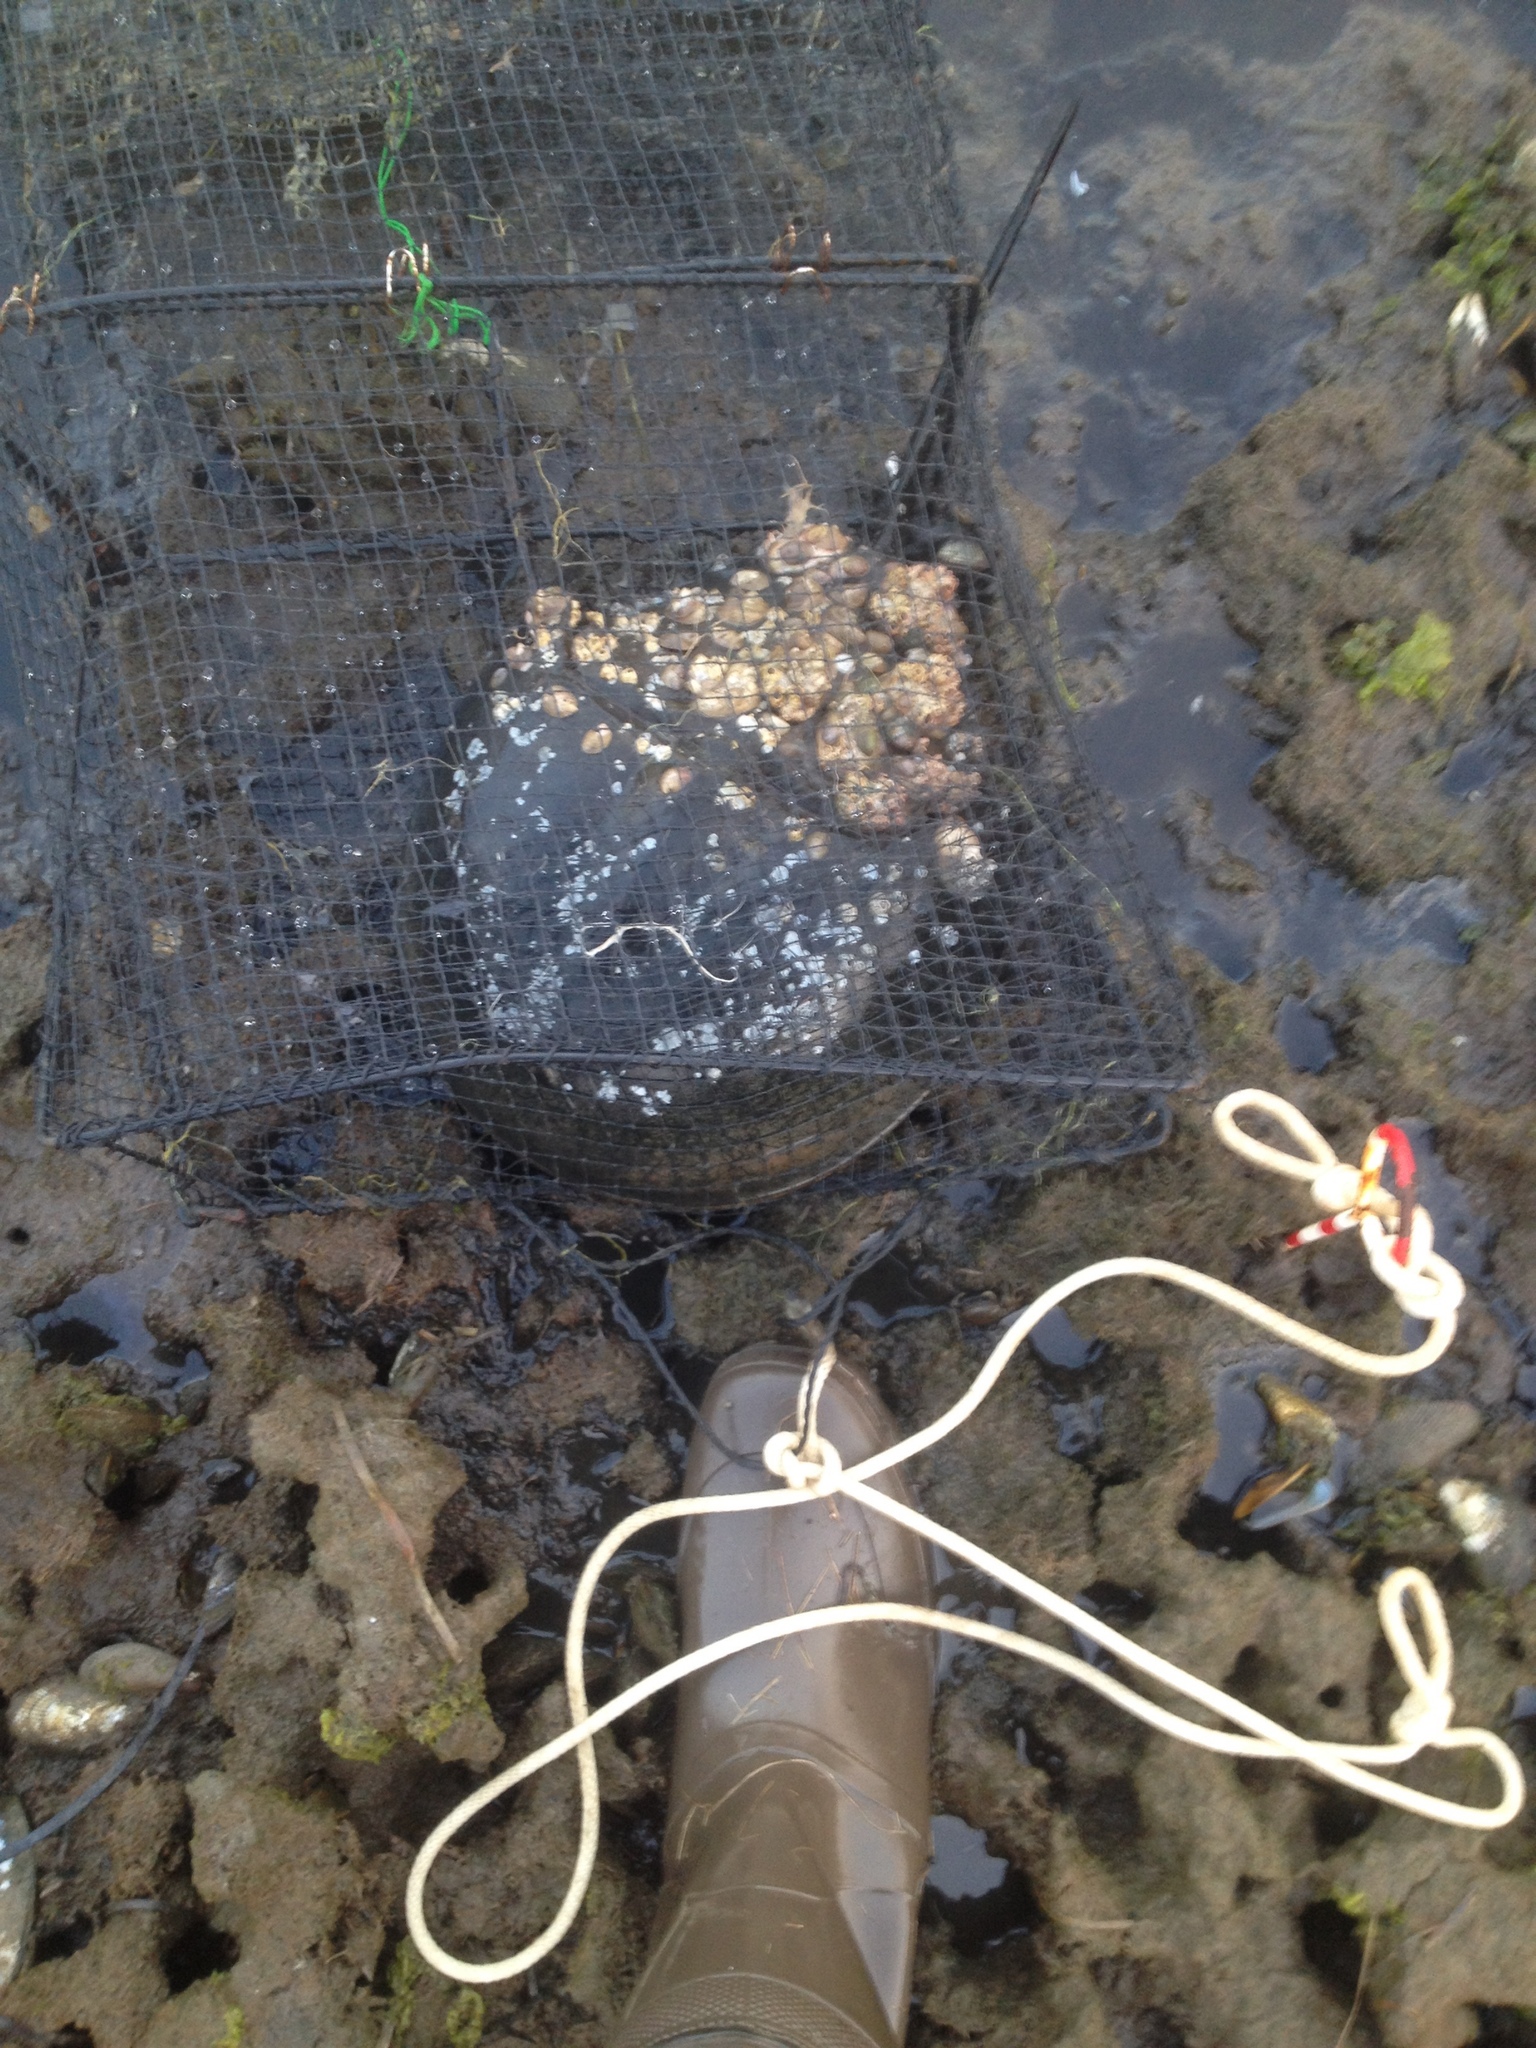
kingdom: Animalia
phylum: Arthropoda
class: Merostomata
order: Xiphosurida
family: Limulidae
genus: Limulus
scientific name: Limulus polyphemus
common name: Horseshoe crab
